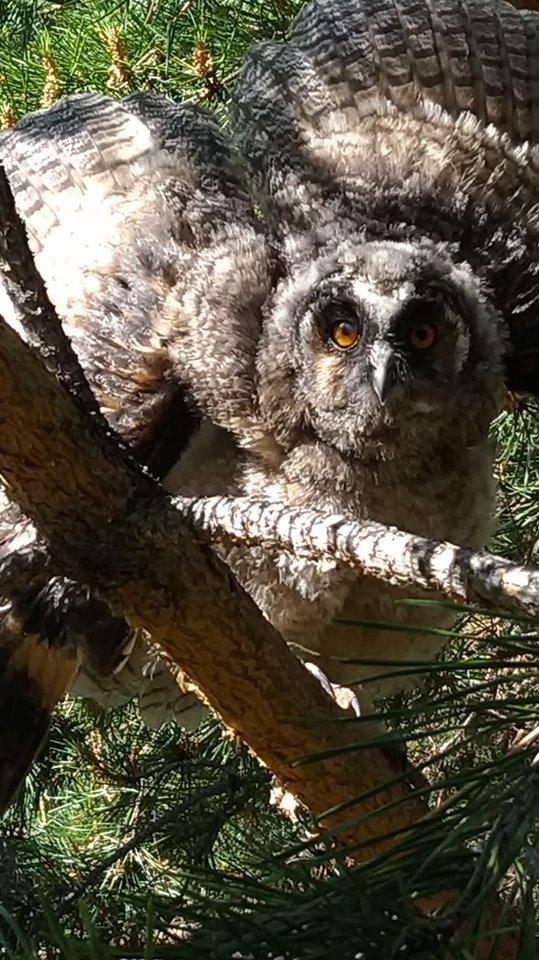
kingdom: Animalia
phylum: Chordata
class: Aves
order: Strigiformes
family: Strigidae
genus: Asio
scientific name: Asio otus
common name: Long-eared owl
